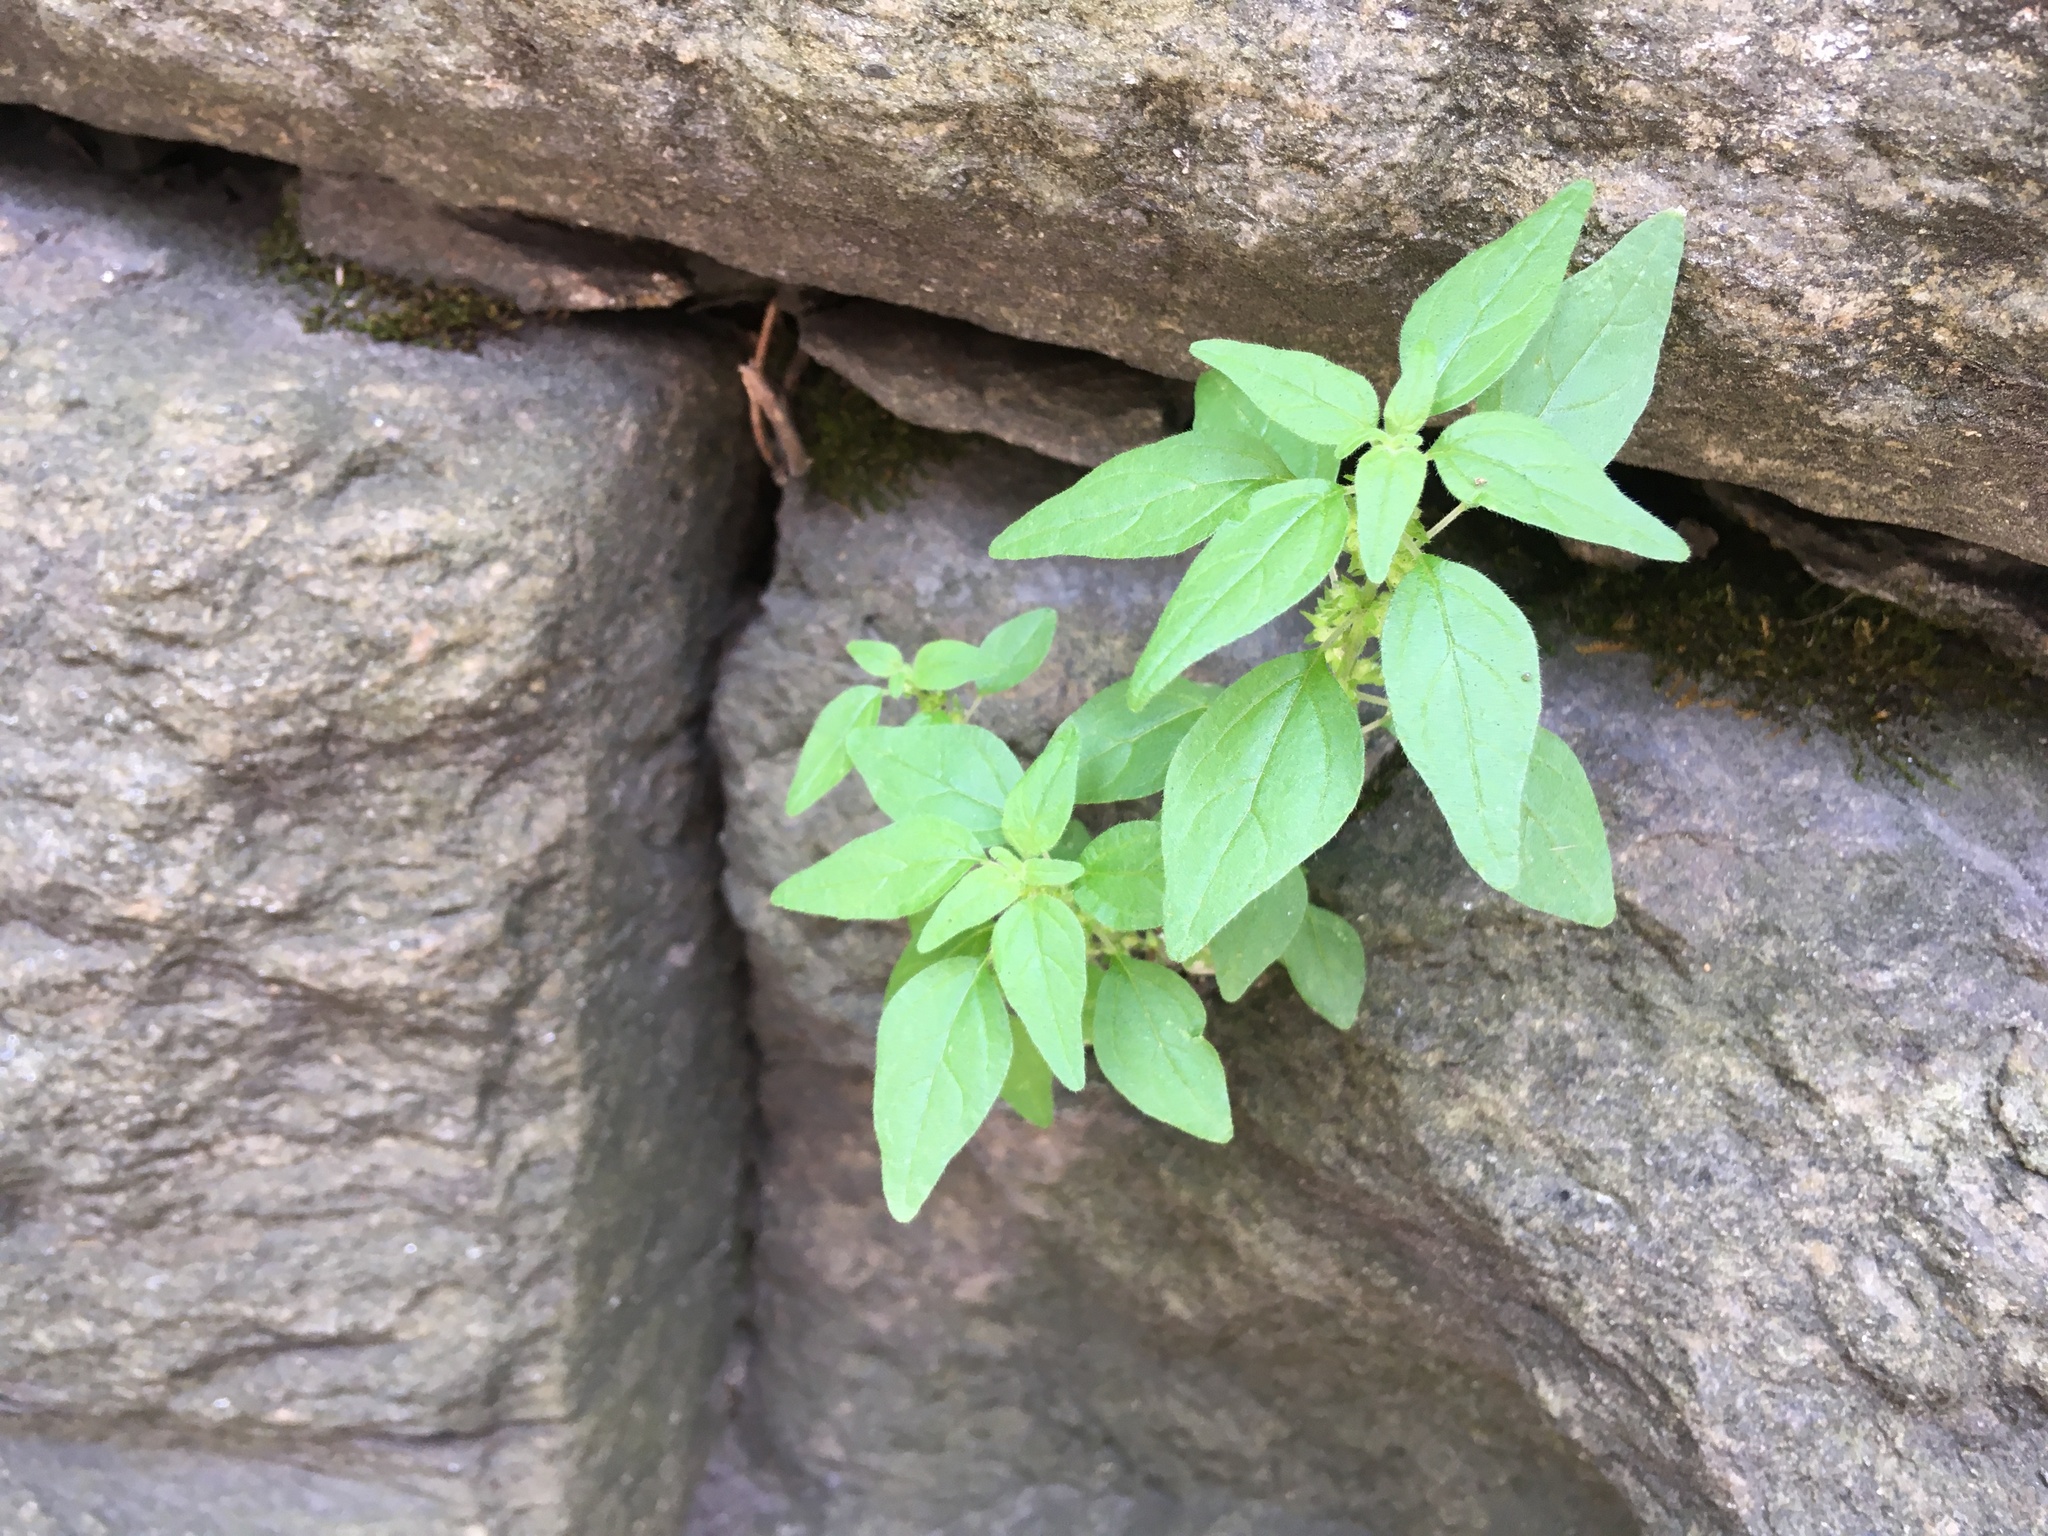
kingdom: Plantae
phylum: Tracheophyta
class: Magnoliopsida
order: Rosales
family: Urticaceae
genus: Parietaria
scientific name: Parietaria pensylvanica
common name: Pennsylvania pellitory
